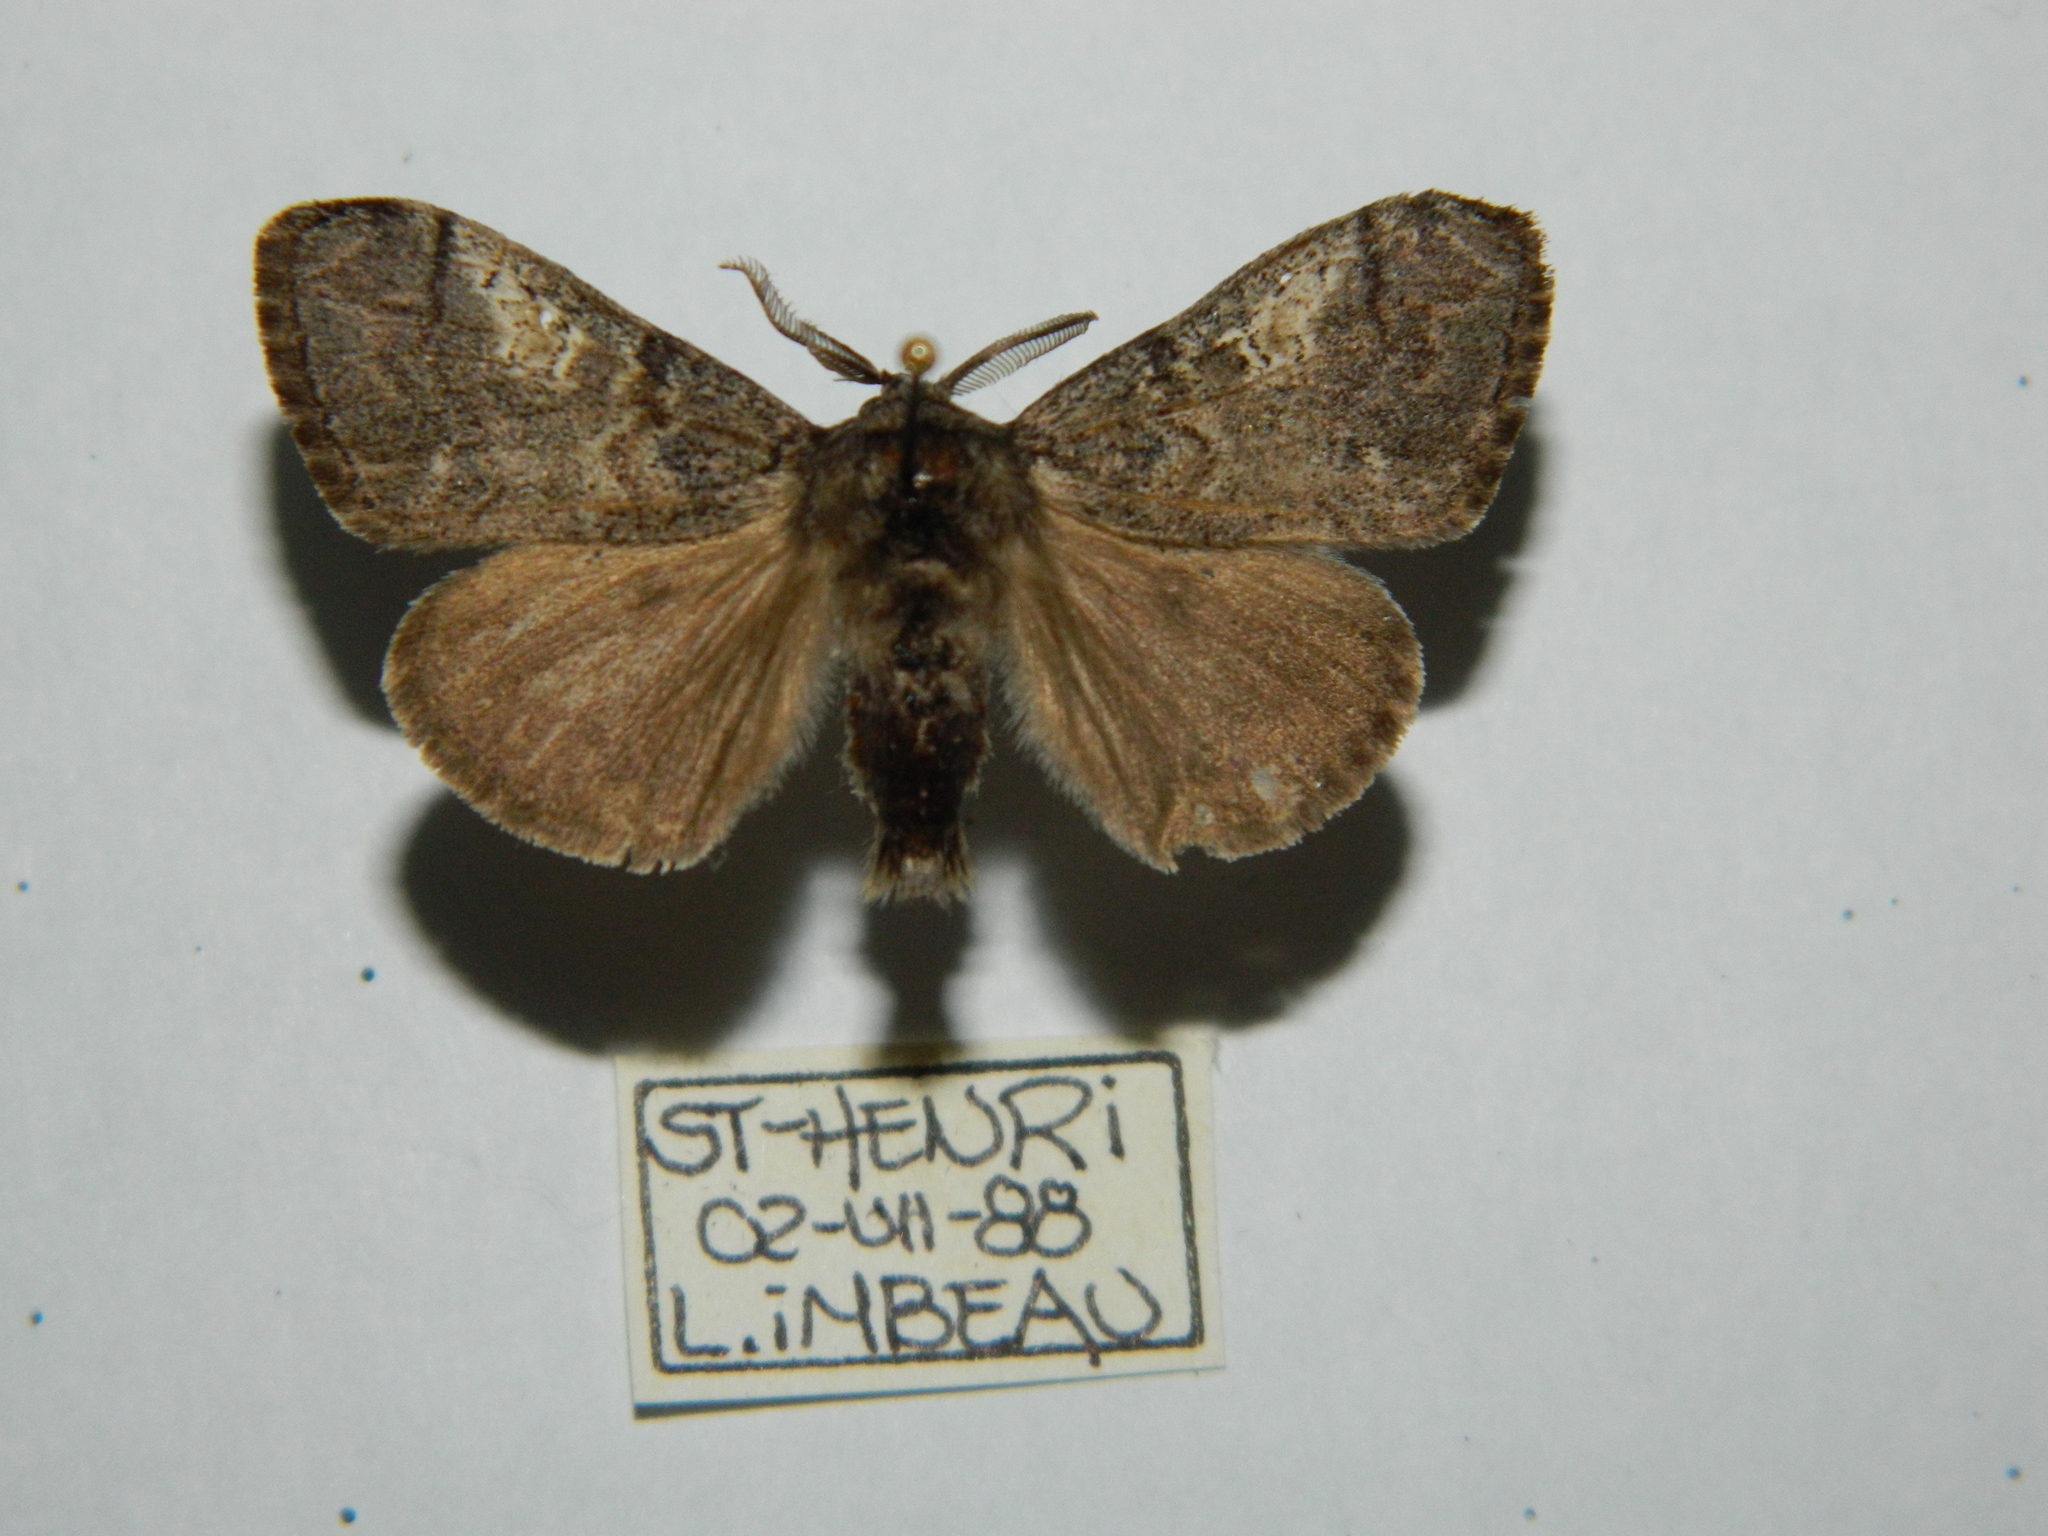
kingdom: Animalia
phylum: Arthropoda
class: Insecta
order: Lepidoptera
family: Erebidae
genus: Dasychira
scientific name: Dasychira vagans
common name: Variable tussock moth
